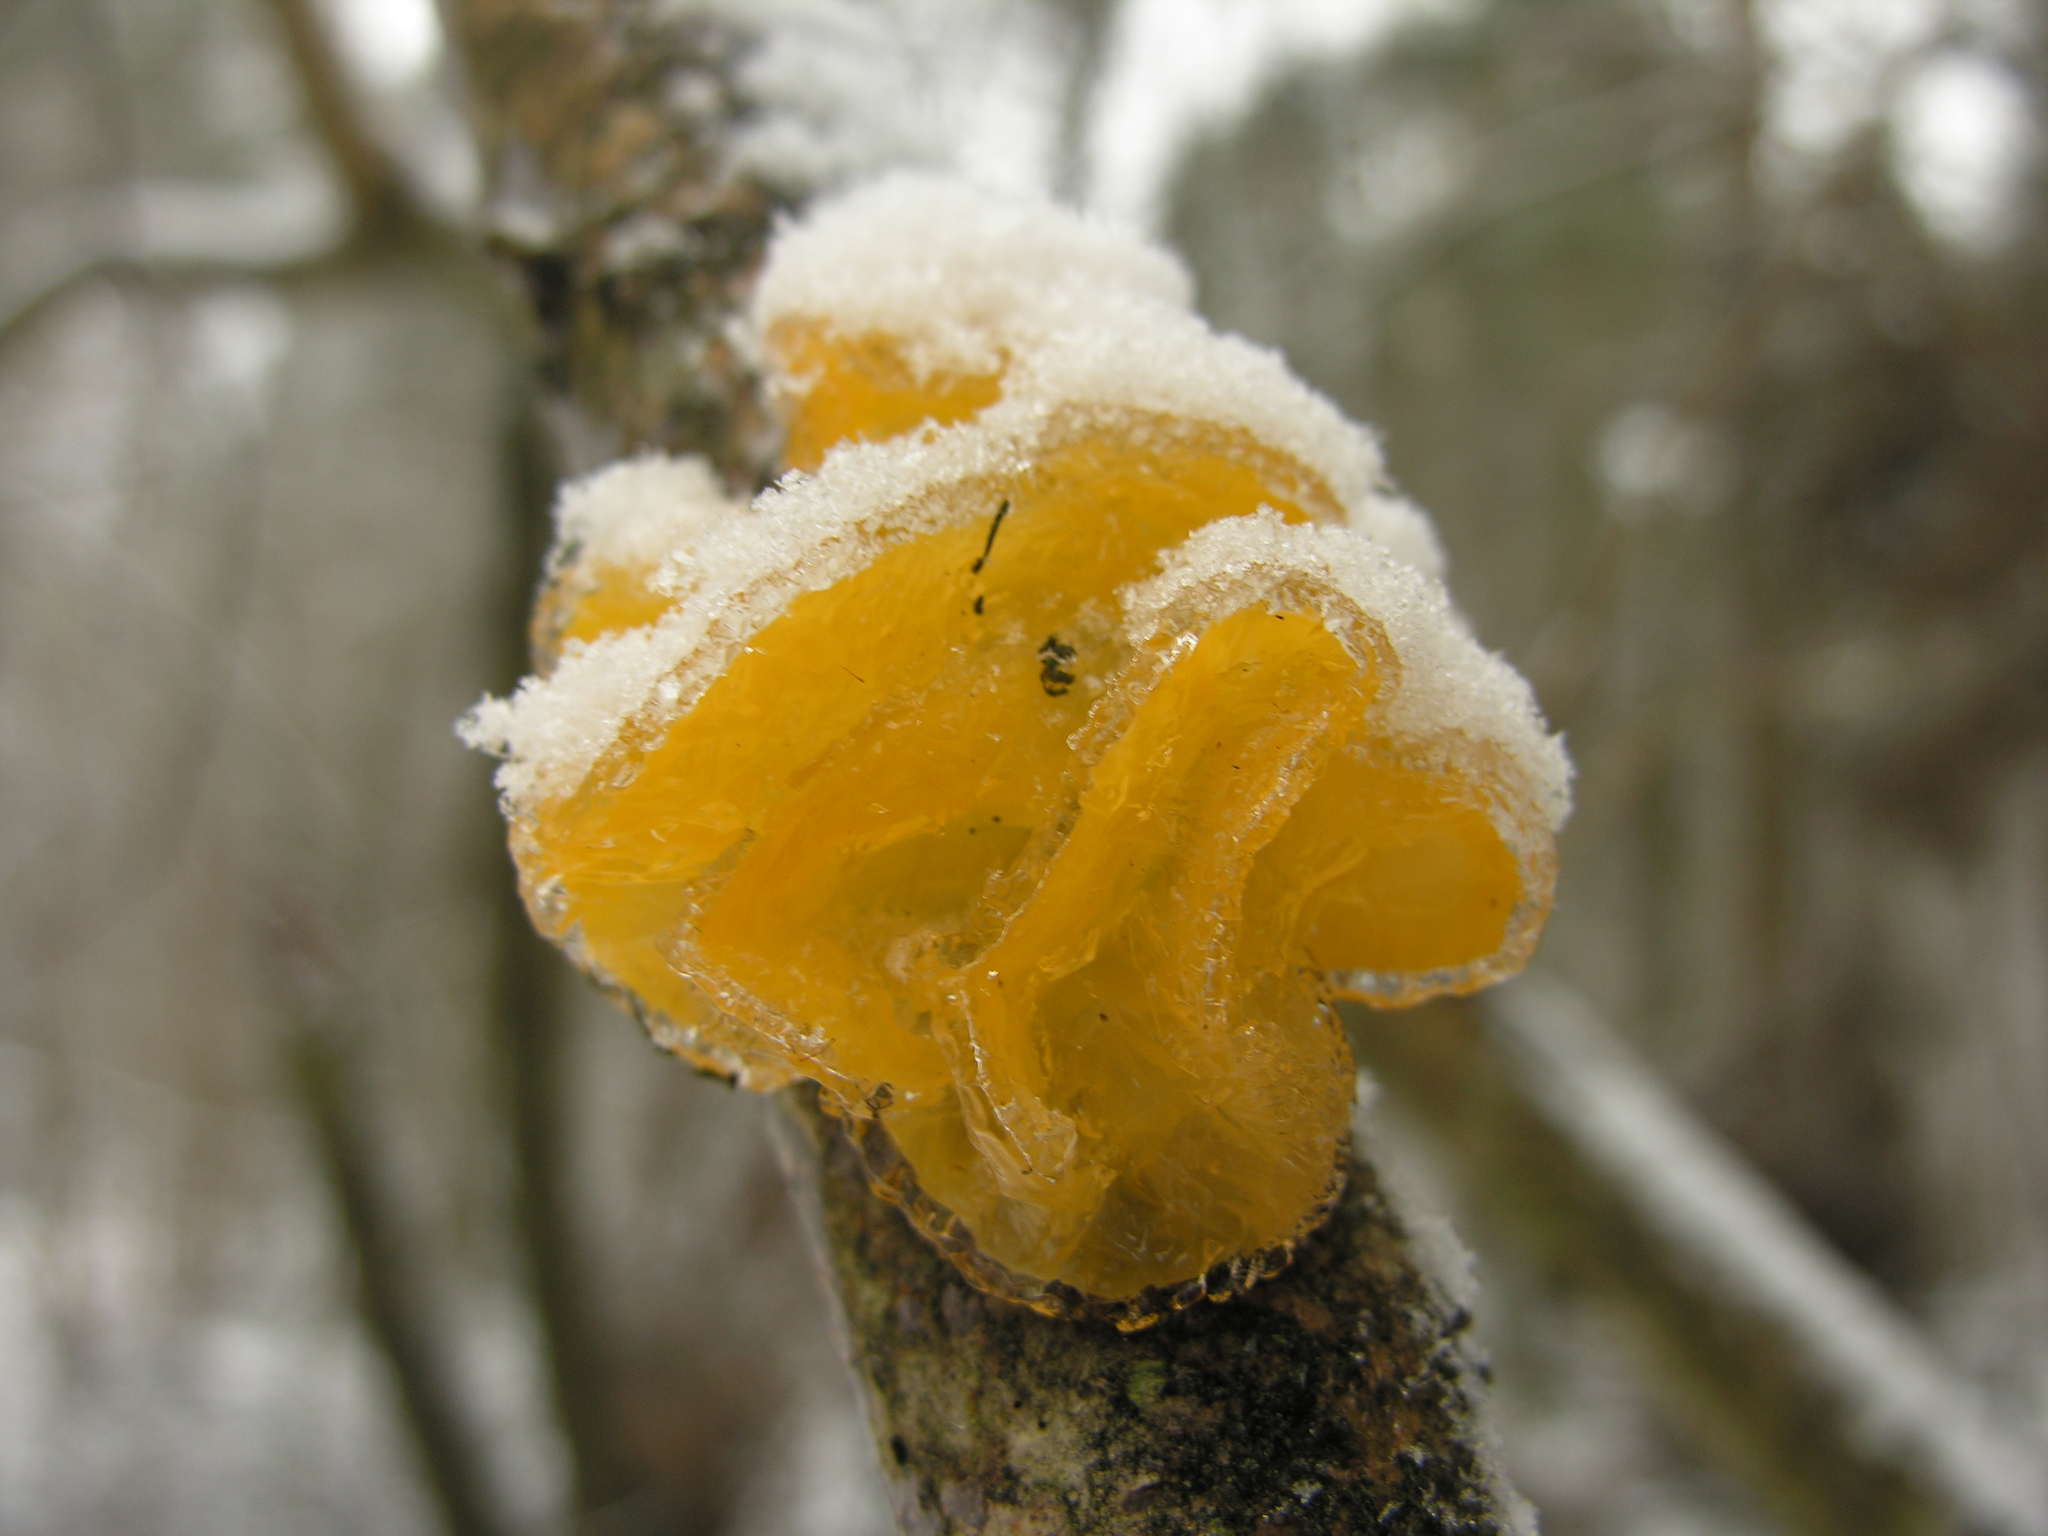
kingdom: Fungi
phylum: Basidiomycota
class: Tremellomycetes
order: Tremellales
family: Tremellaceae
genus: Tremella
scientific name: Tremella mesenterica
